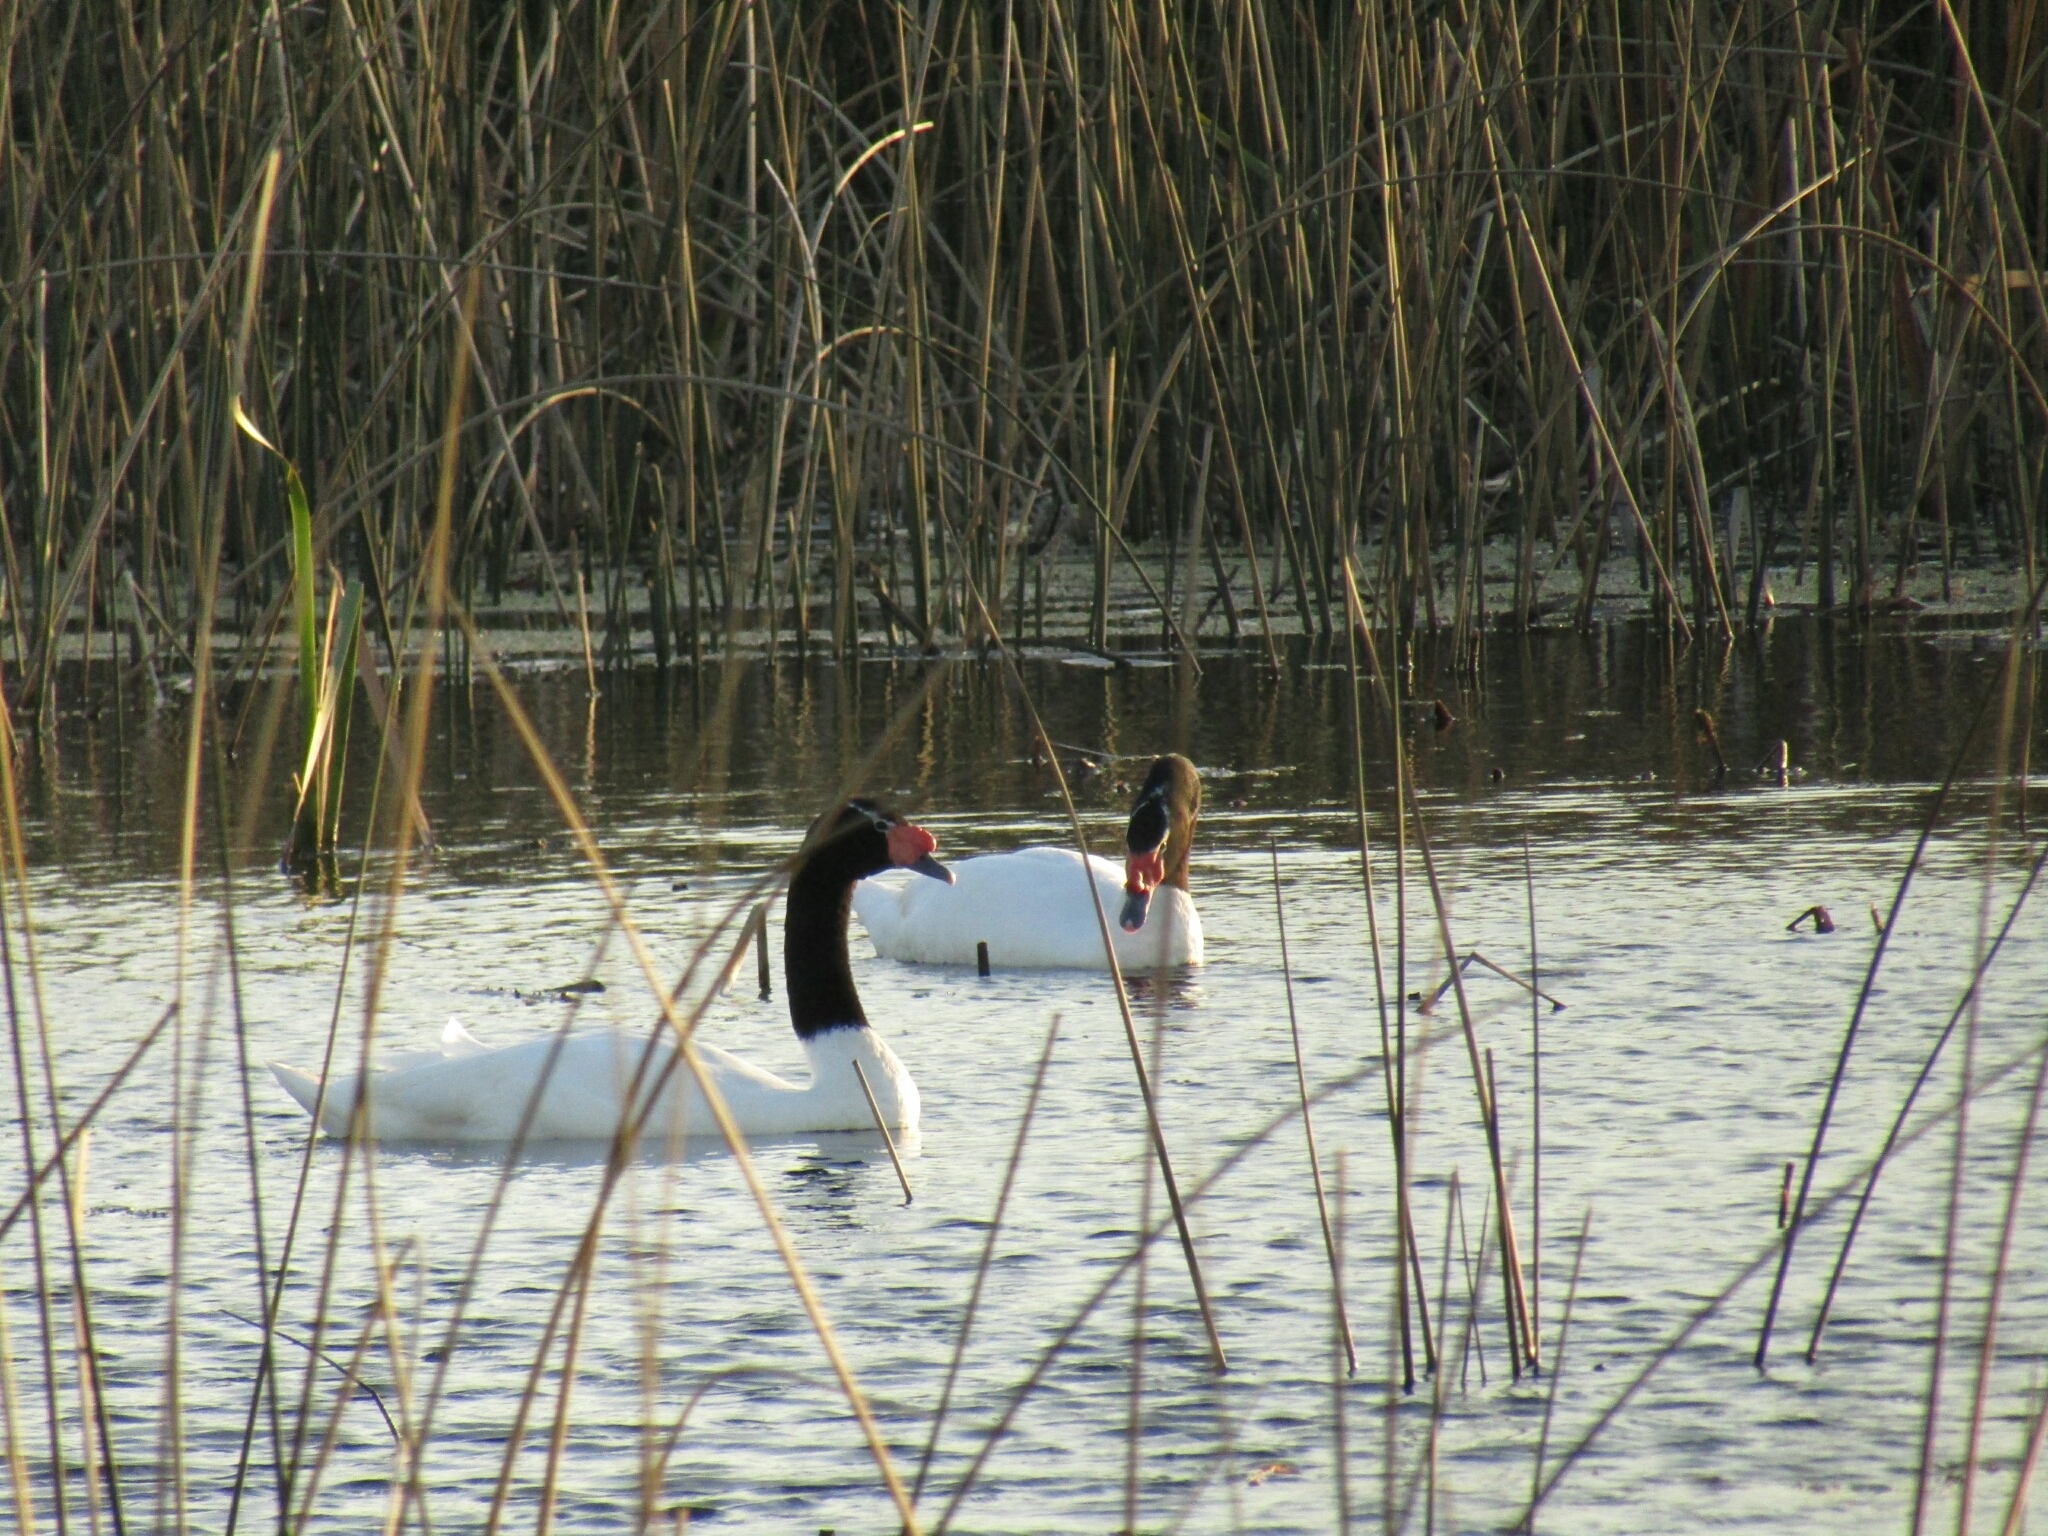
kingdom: Animalia
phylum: Chordata
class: Aves
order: Anseriformes
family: Anatidae
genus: Cygnus
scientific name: Cygnus melancoryphus
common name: Black-necked swan
